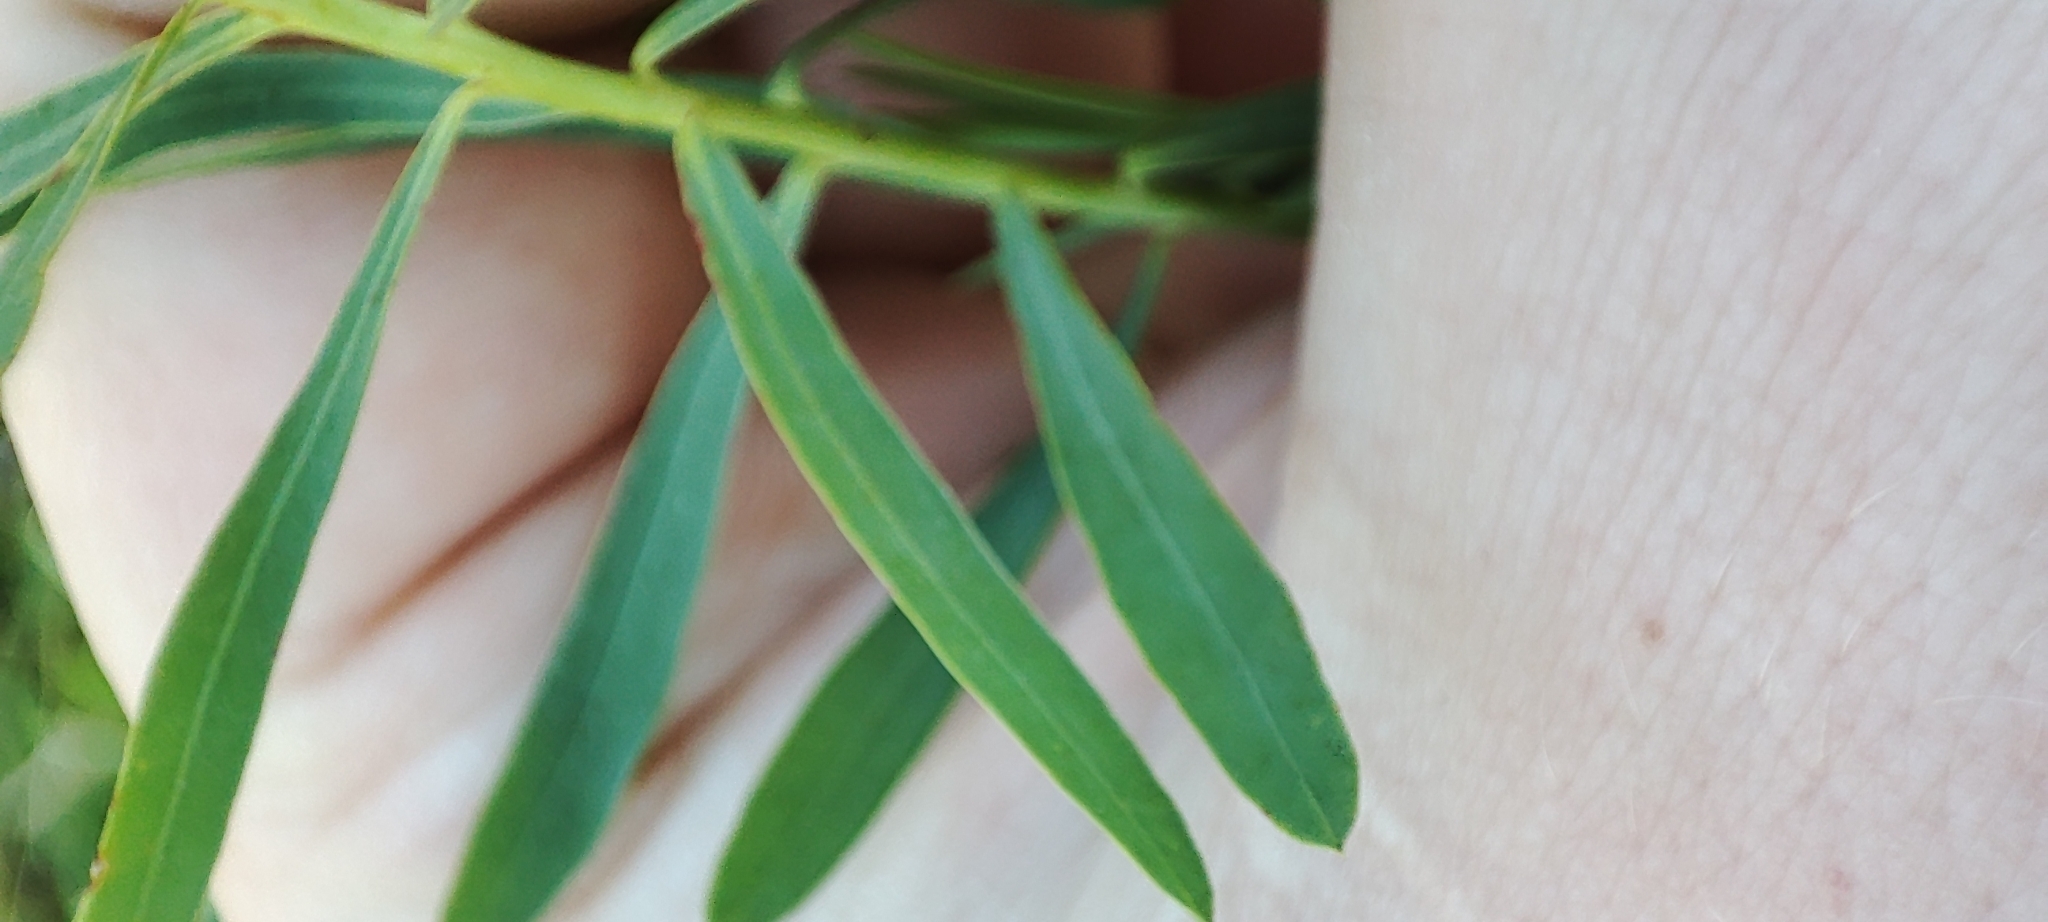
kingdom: Plantae
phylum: Tracheophyta
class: Magnoliopsida
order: Malpighiales
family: Euphorbiaceae
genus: Euphorbia
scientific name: Euphorbia virgata
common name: Leafy spurge
